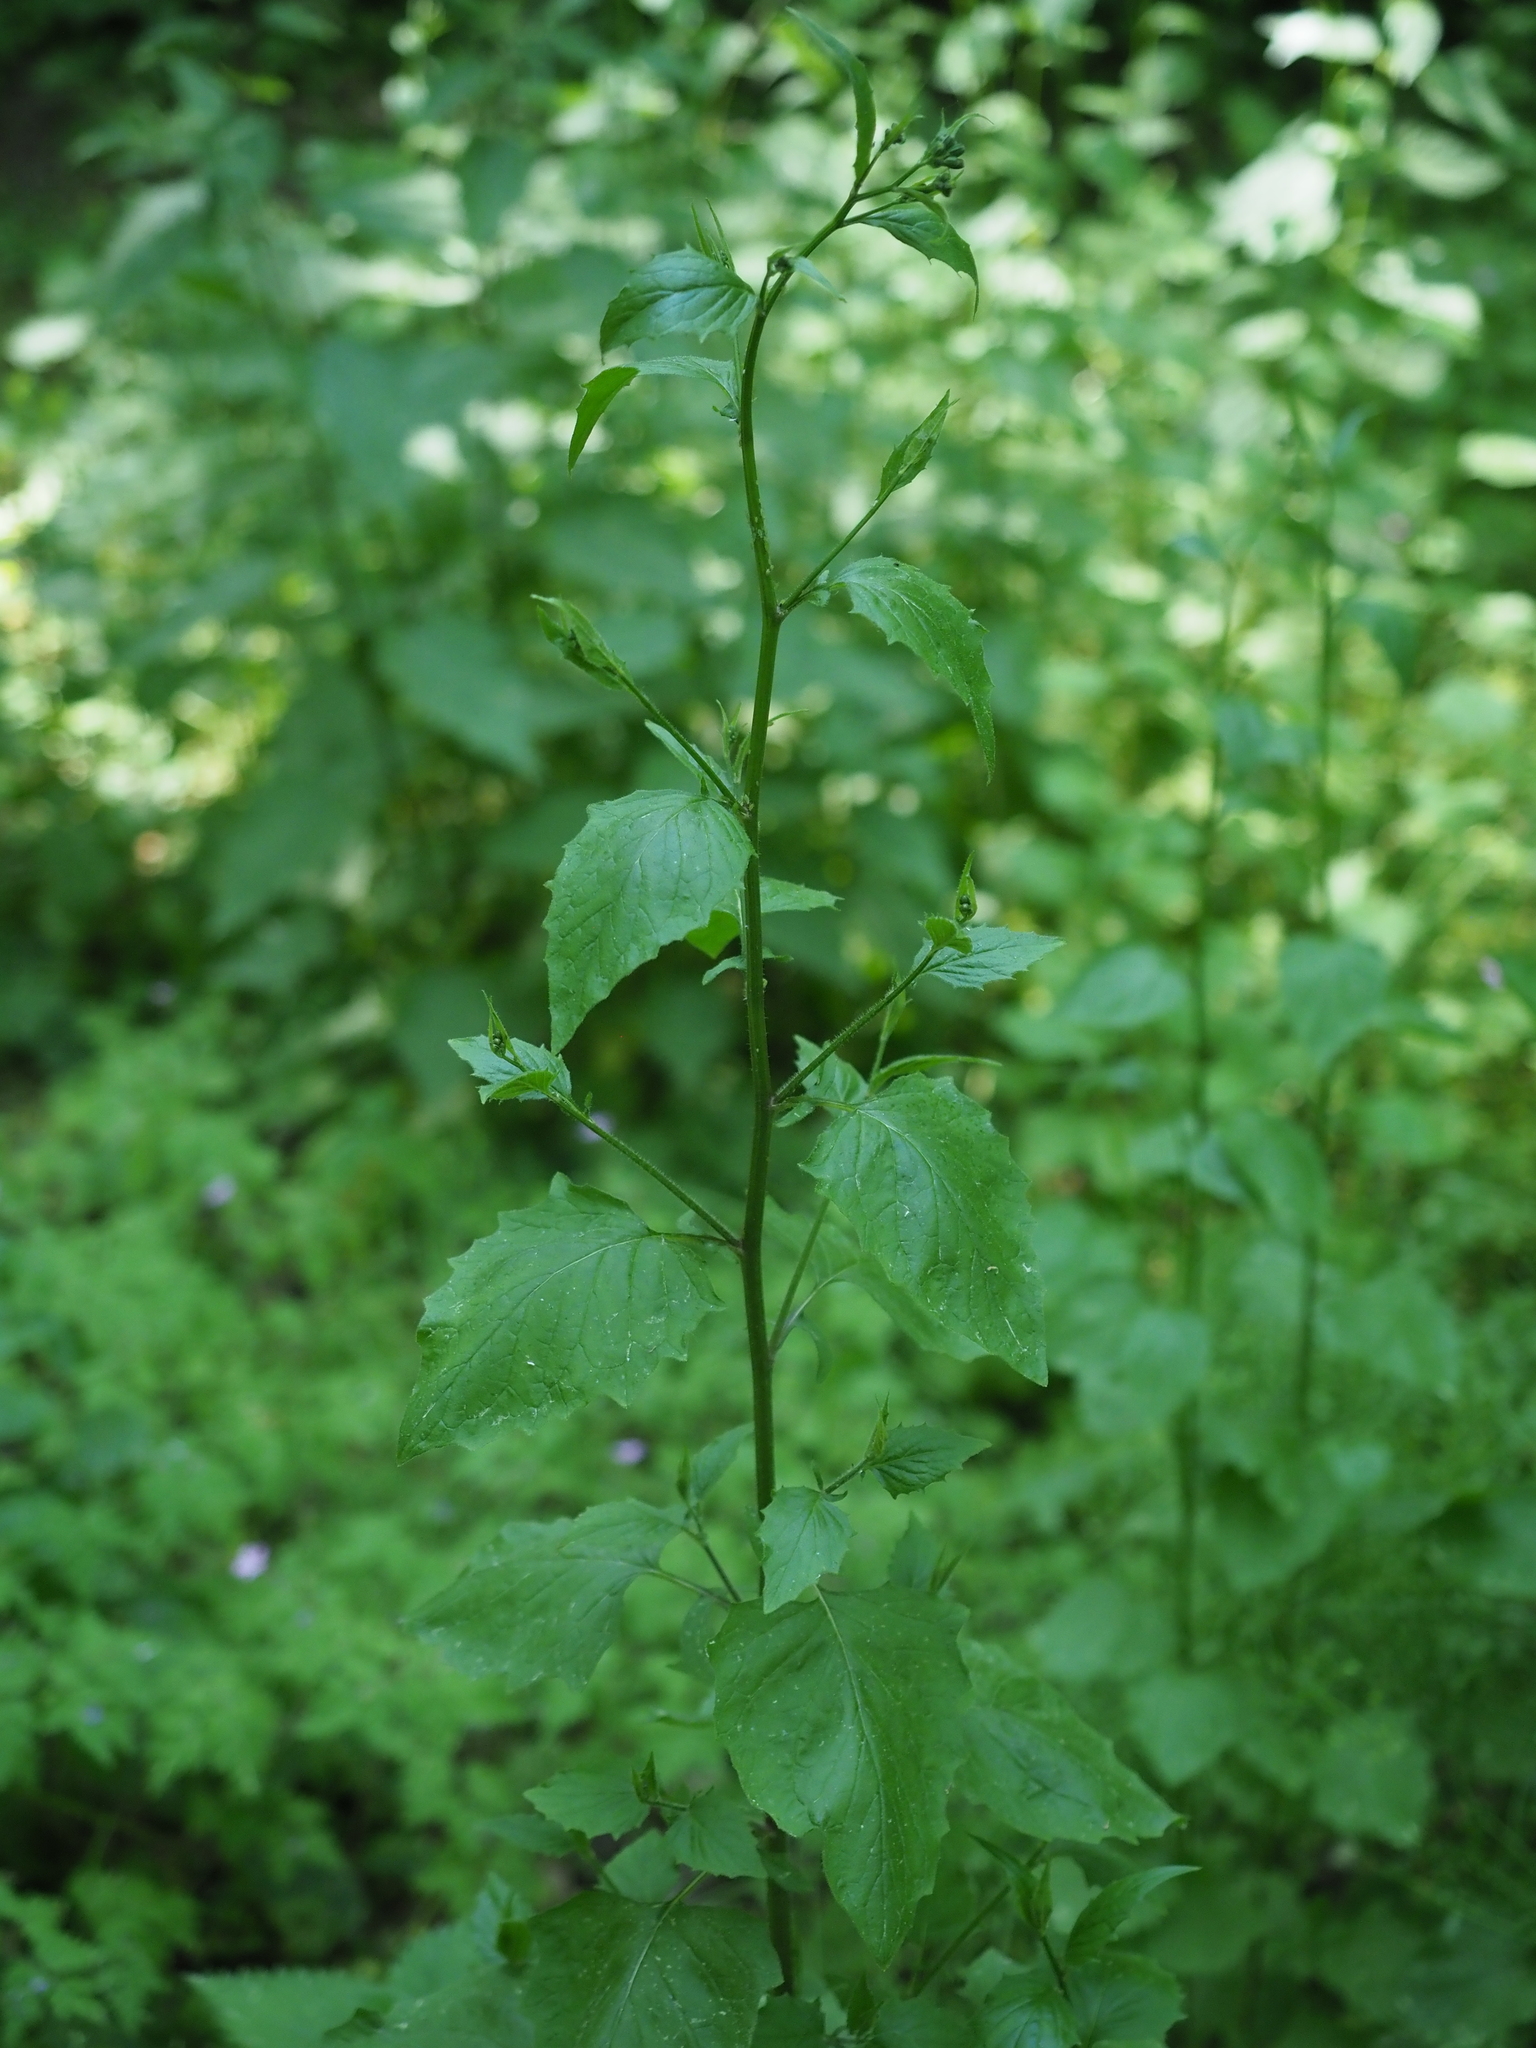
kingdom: Plantae
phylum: Tracheophyta
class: Magnoliopsida
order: Asterales
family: Asteraceae
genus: Lapsana
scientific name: Lapsana communis
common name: Nipplewort
